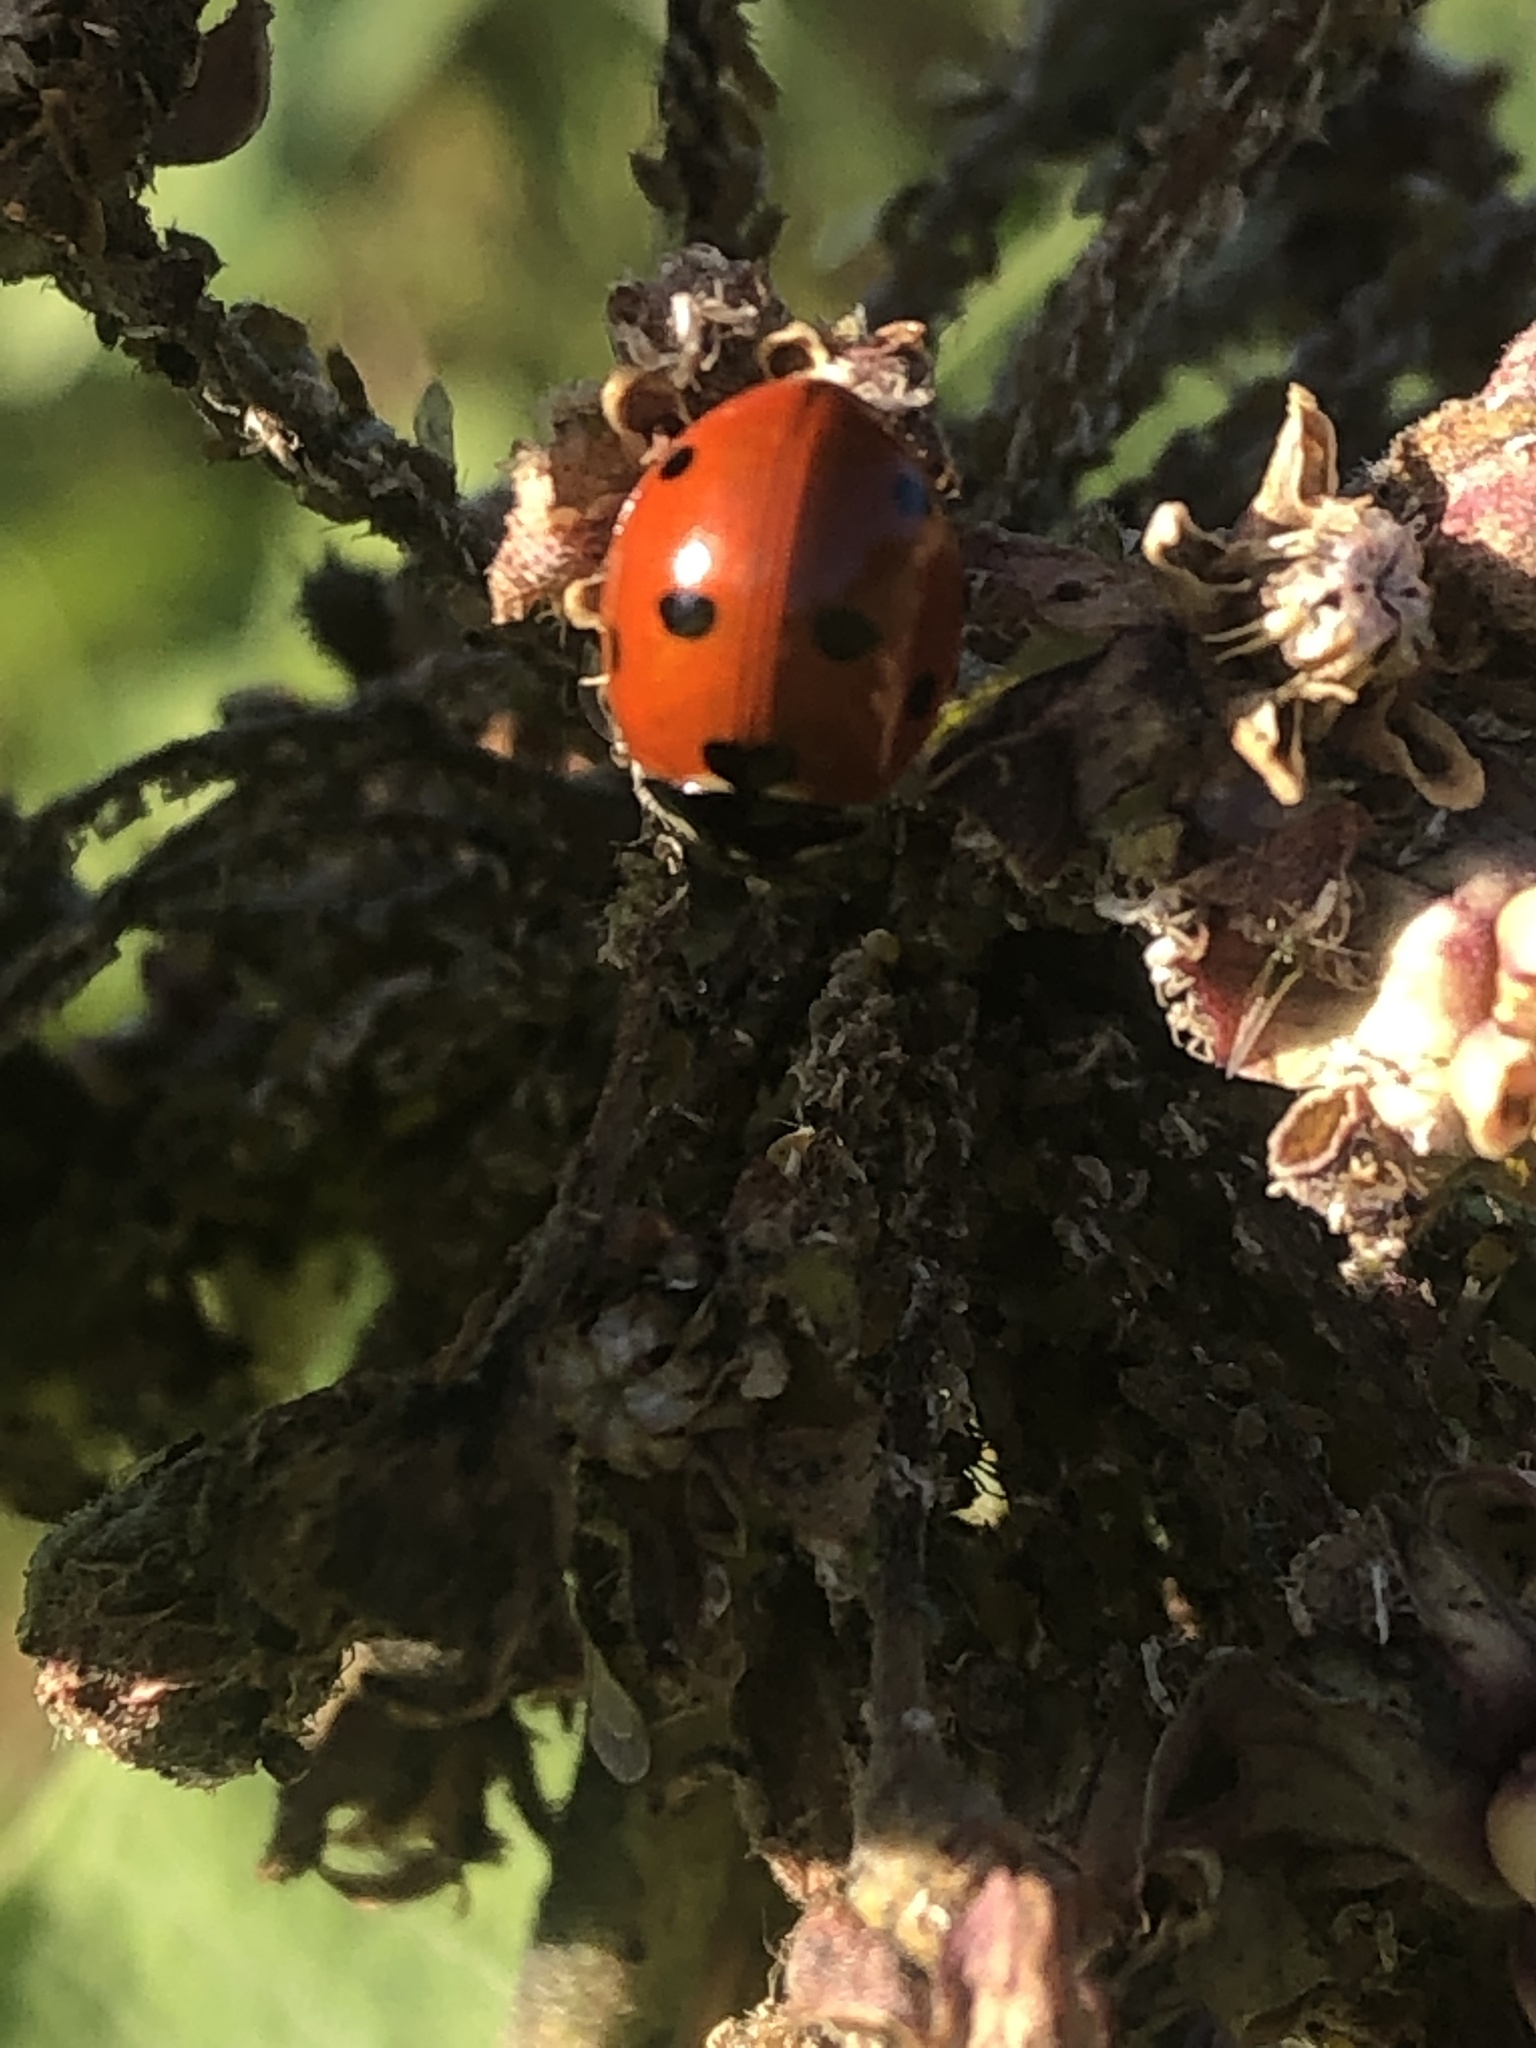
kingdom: Animalia
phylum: Arthropoda
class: Insecta
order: Coleoptera
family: Coccinellidae
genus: Coccinella
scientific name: Coccinella septempunctata
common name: Sevenspotted lady beetle
